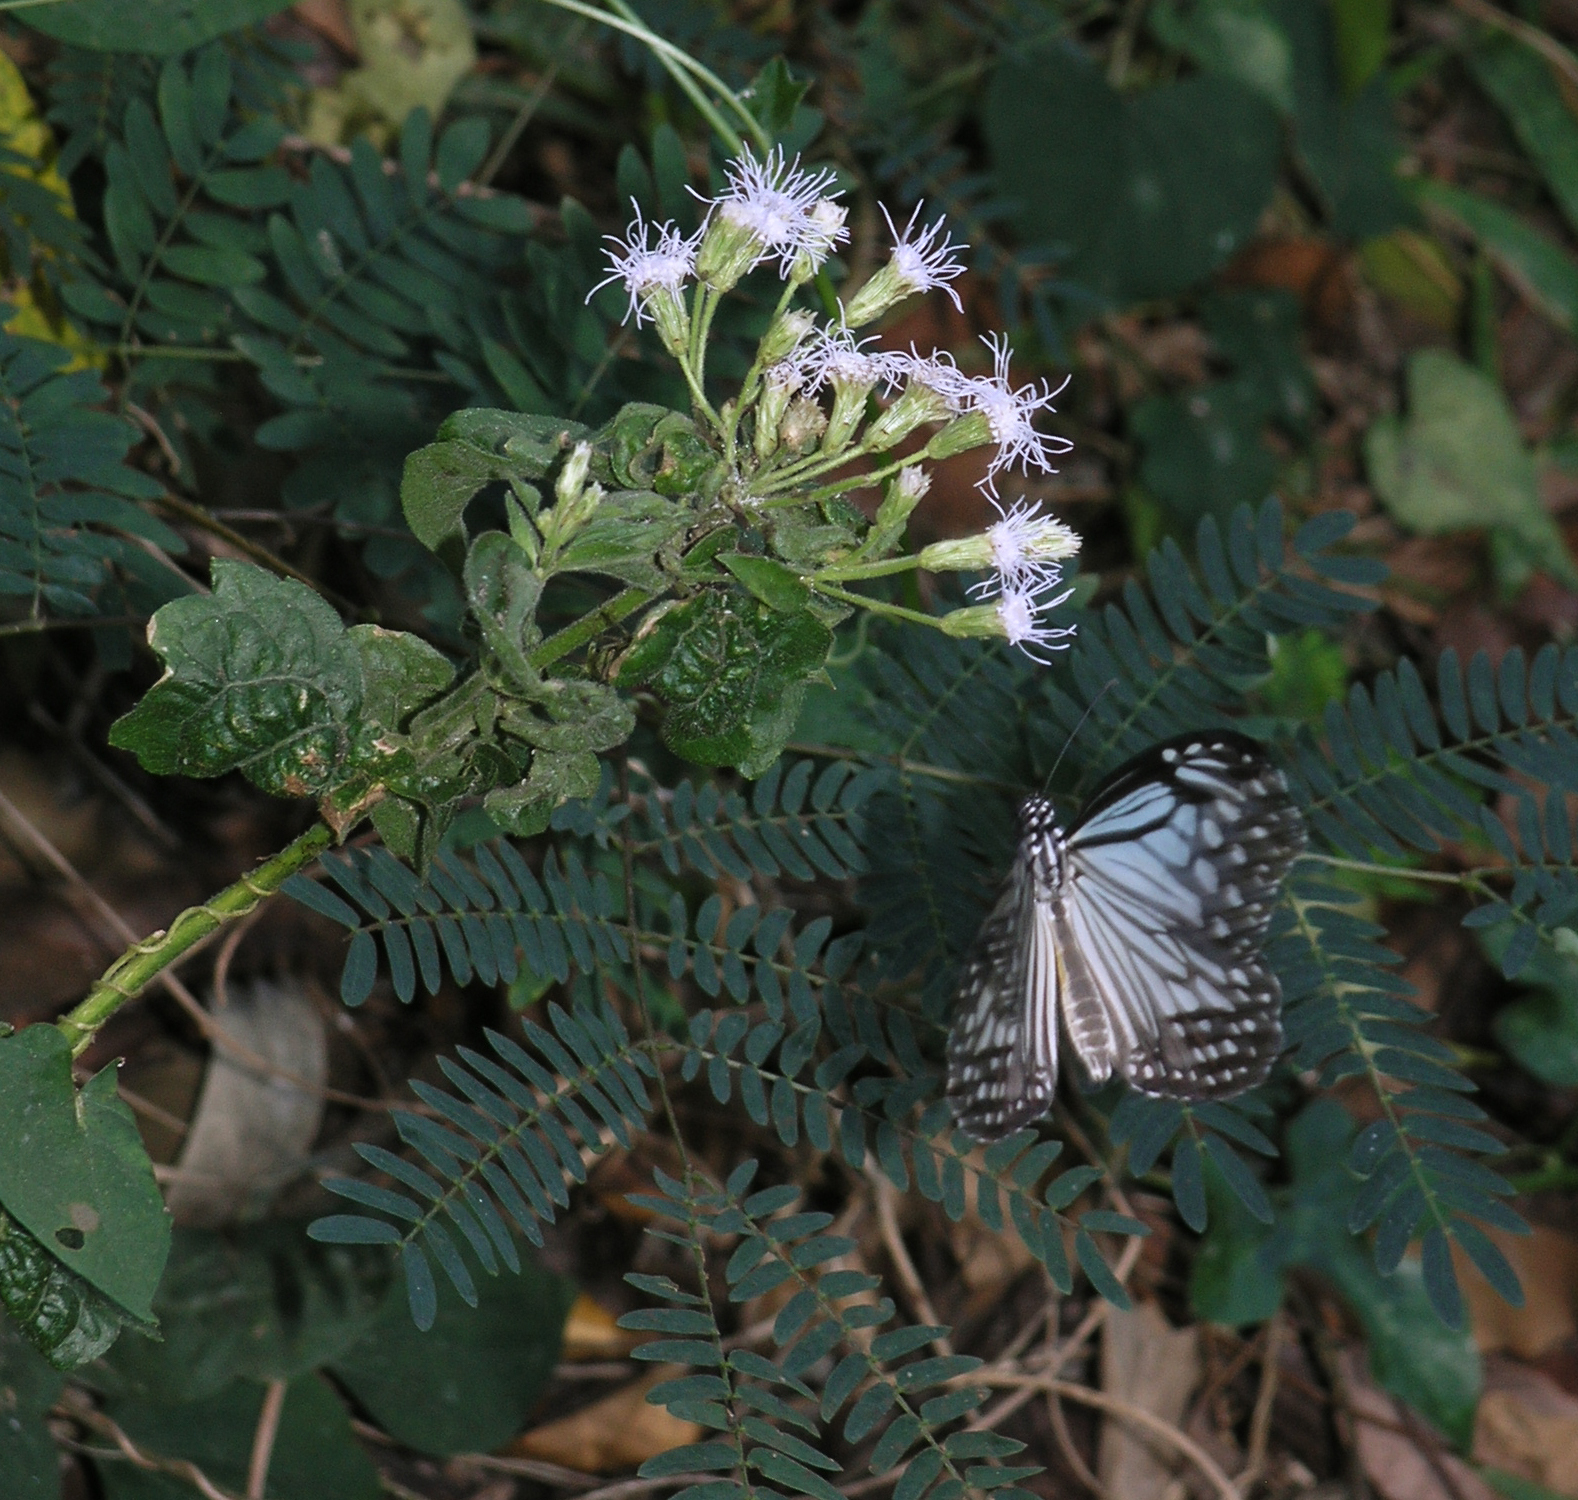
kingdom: Animalia
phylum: Arthropoda
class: Insecta
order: Lepidoptera
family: Nymphalidae
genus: Parantica
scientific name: Parantica aglea
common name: Glassy tiger
